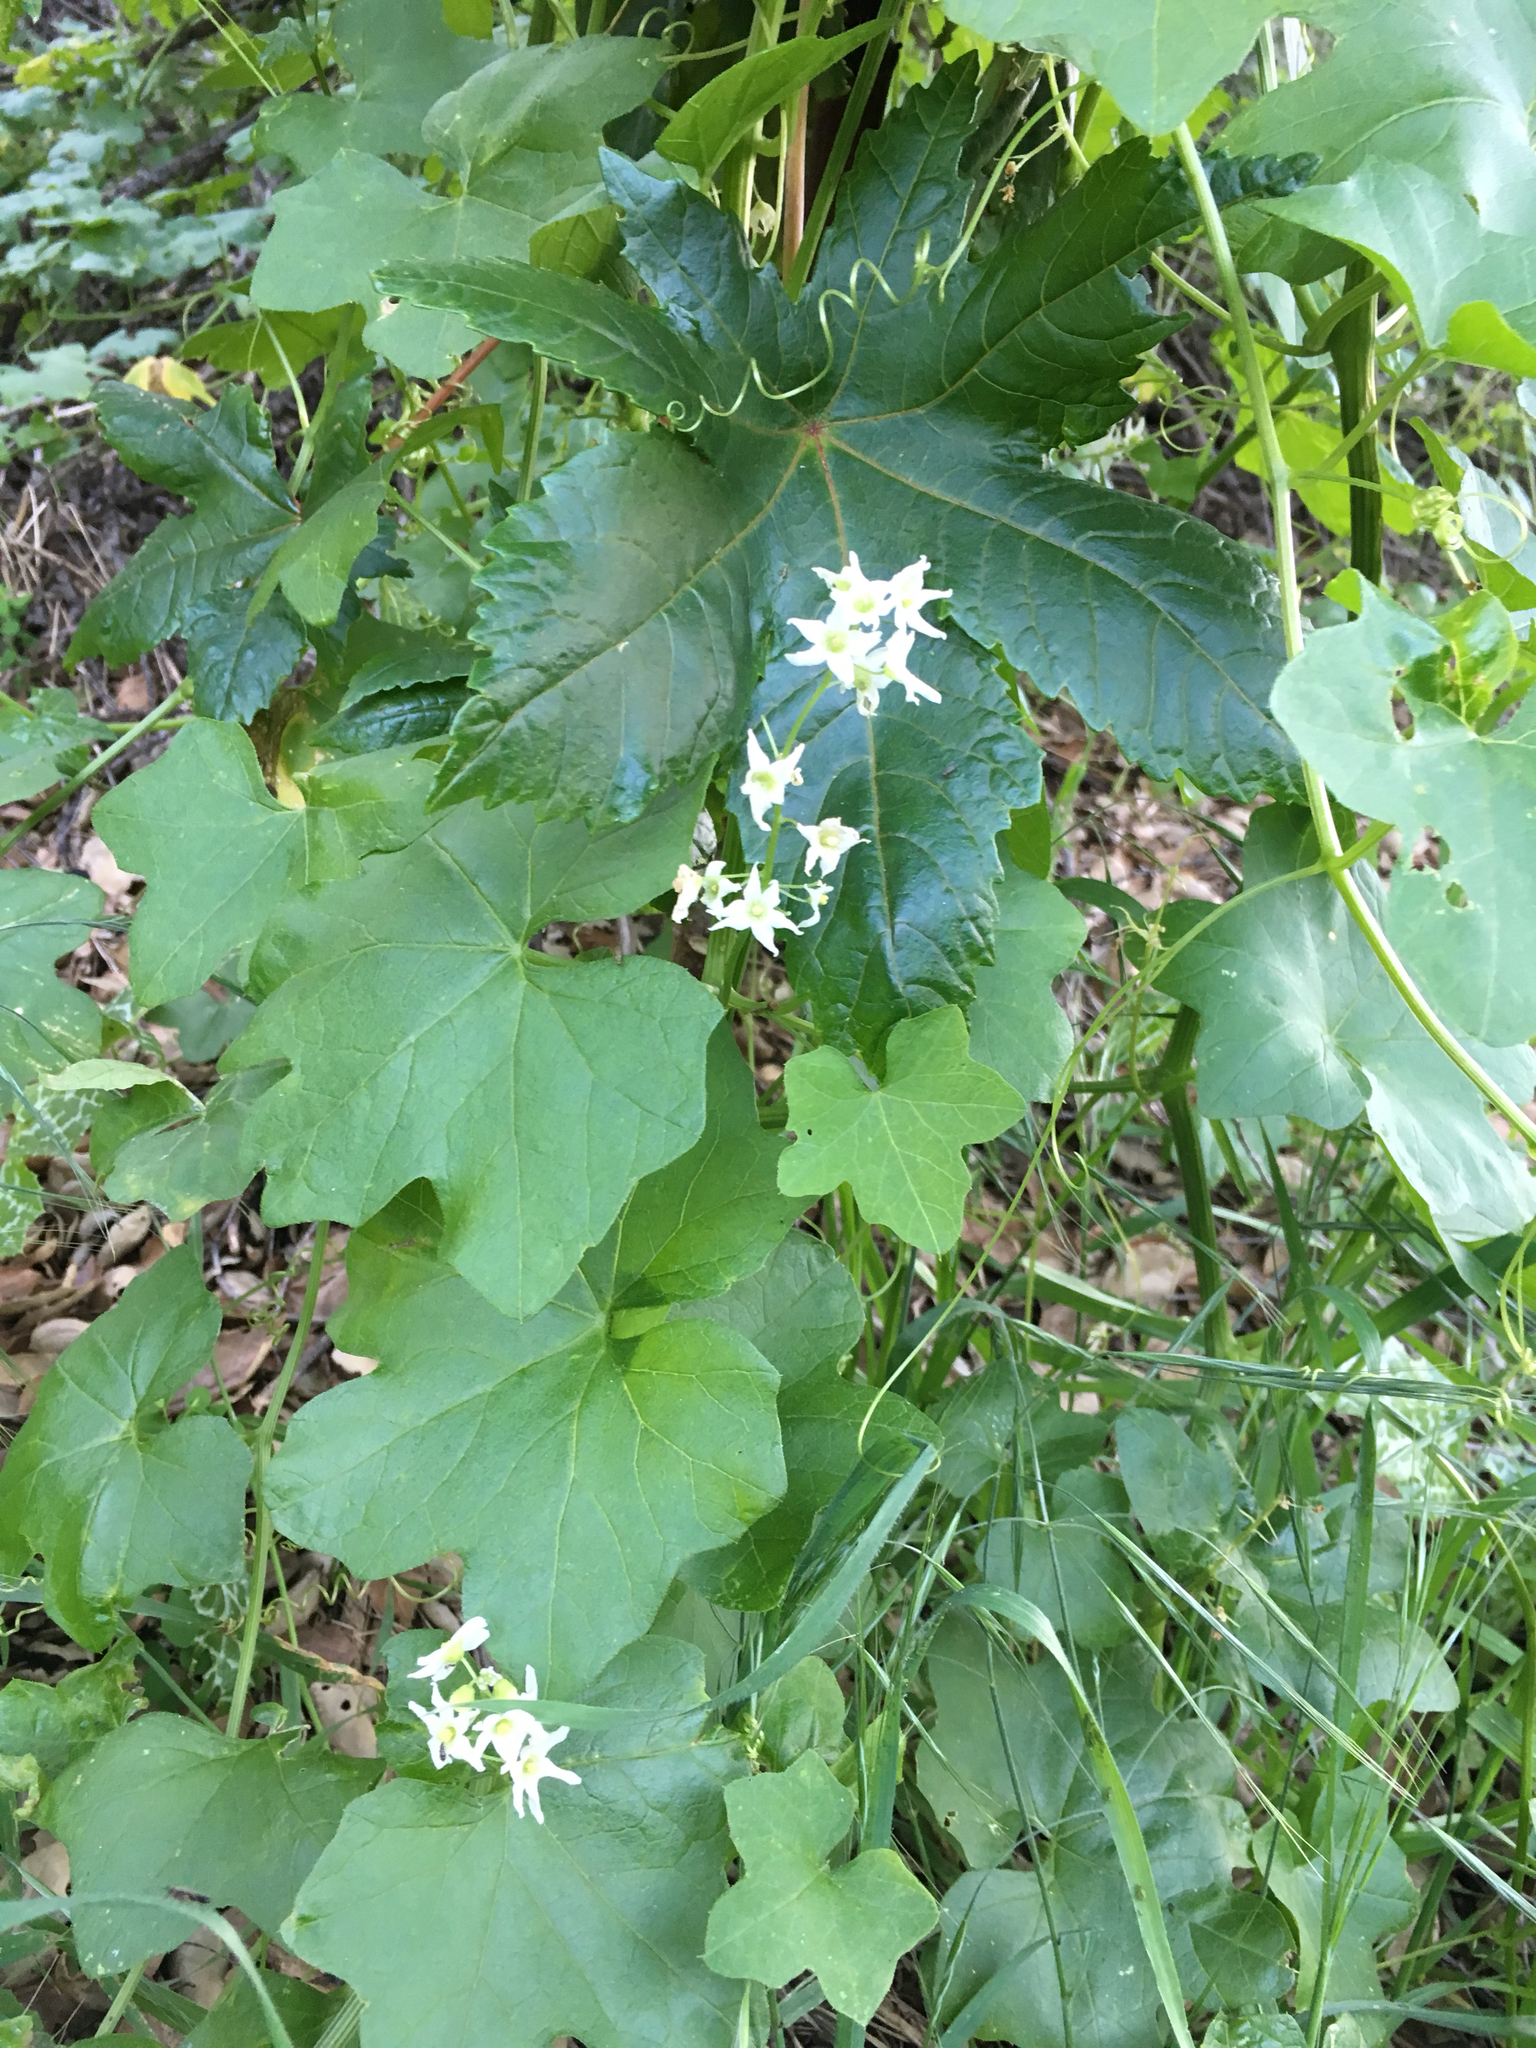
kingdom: Plantae
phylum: Tracheophyta
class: Magnoliopsida
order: Cucurbitales
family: Cucurbitaceae
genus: Marah
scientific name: Marah macrocarpa
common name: Cucamonga manroot
